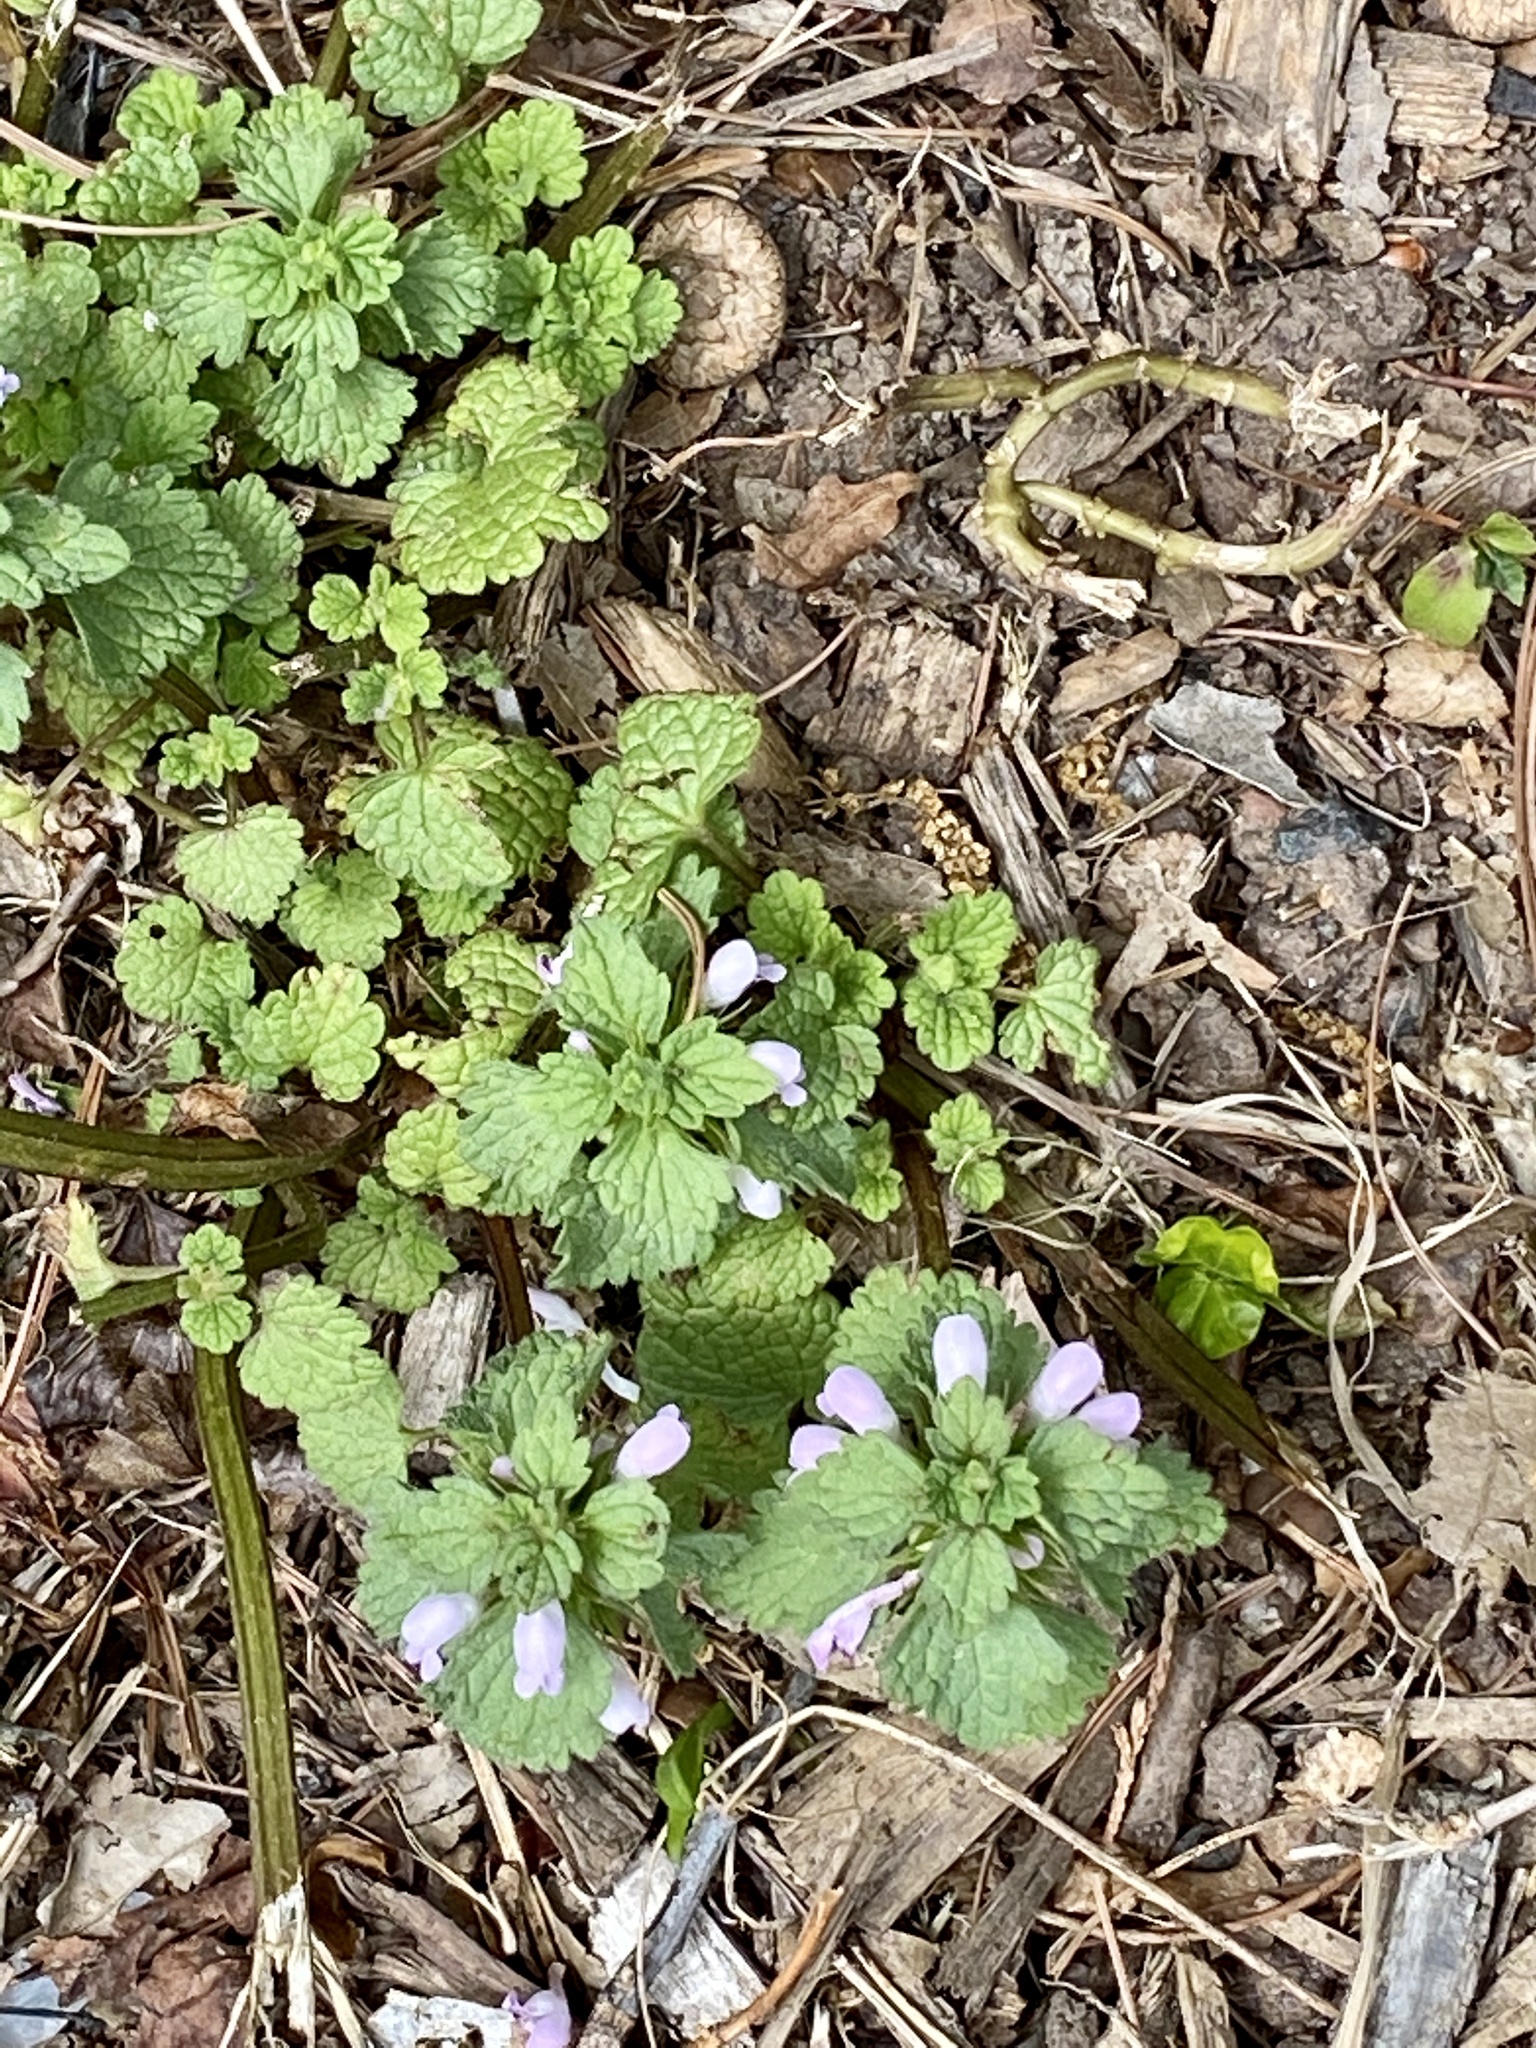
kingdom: Plantae
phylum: Tracheophyta
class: Magnoliopsida
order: Lamiales
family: Lamiaceae
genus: Lamium
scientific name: Lamium purpureum
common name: Red dead-nettle
